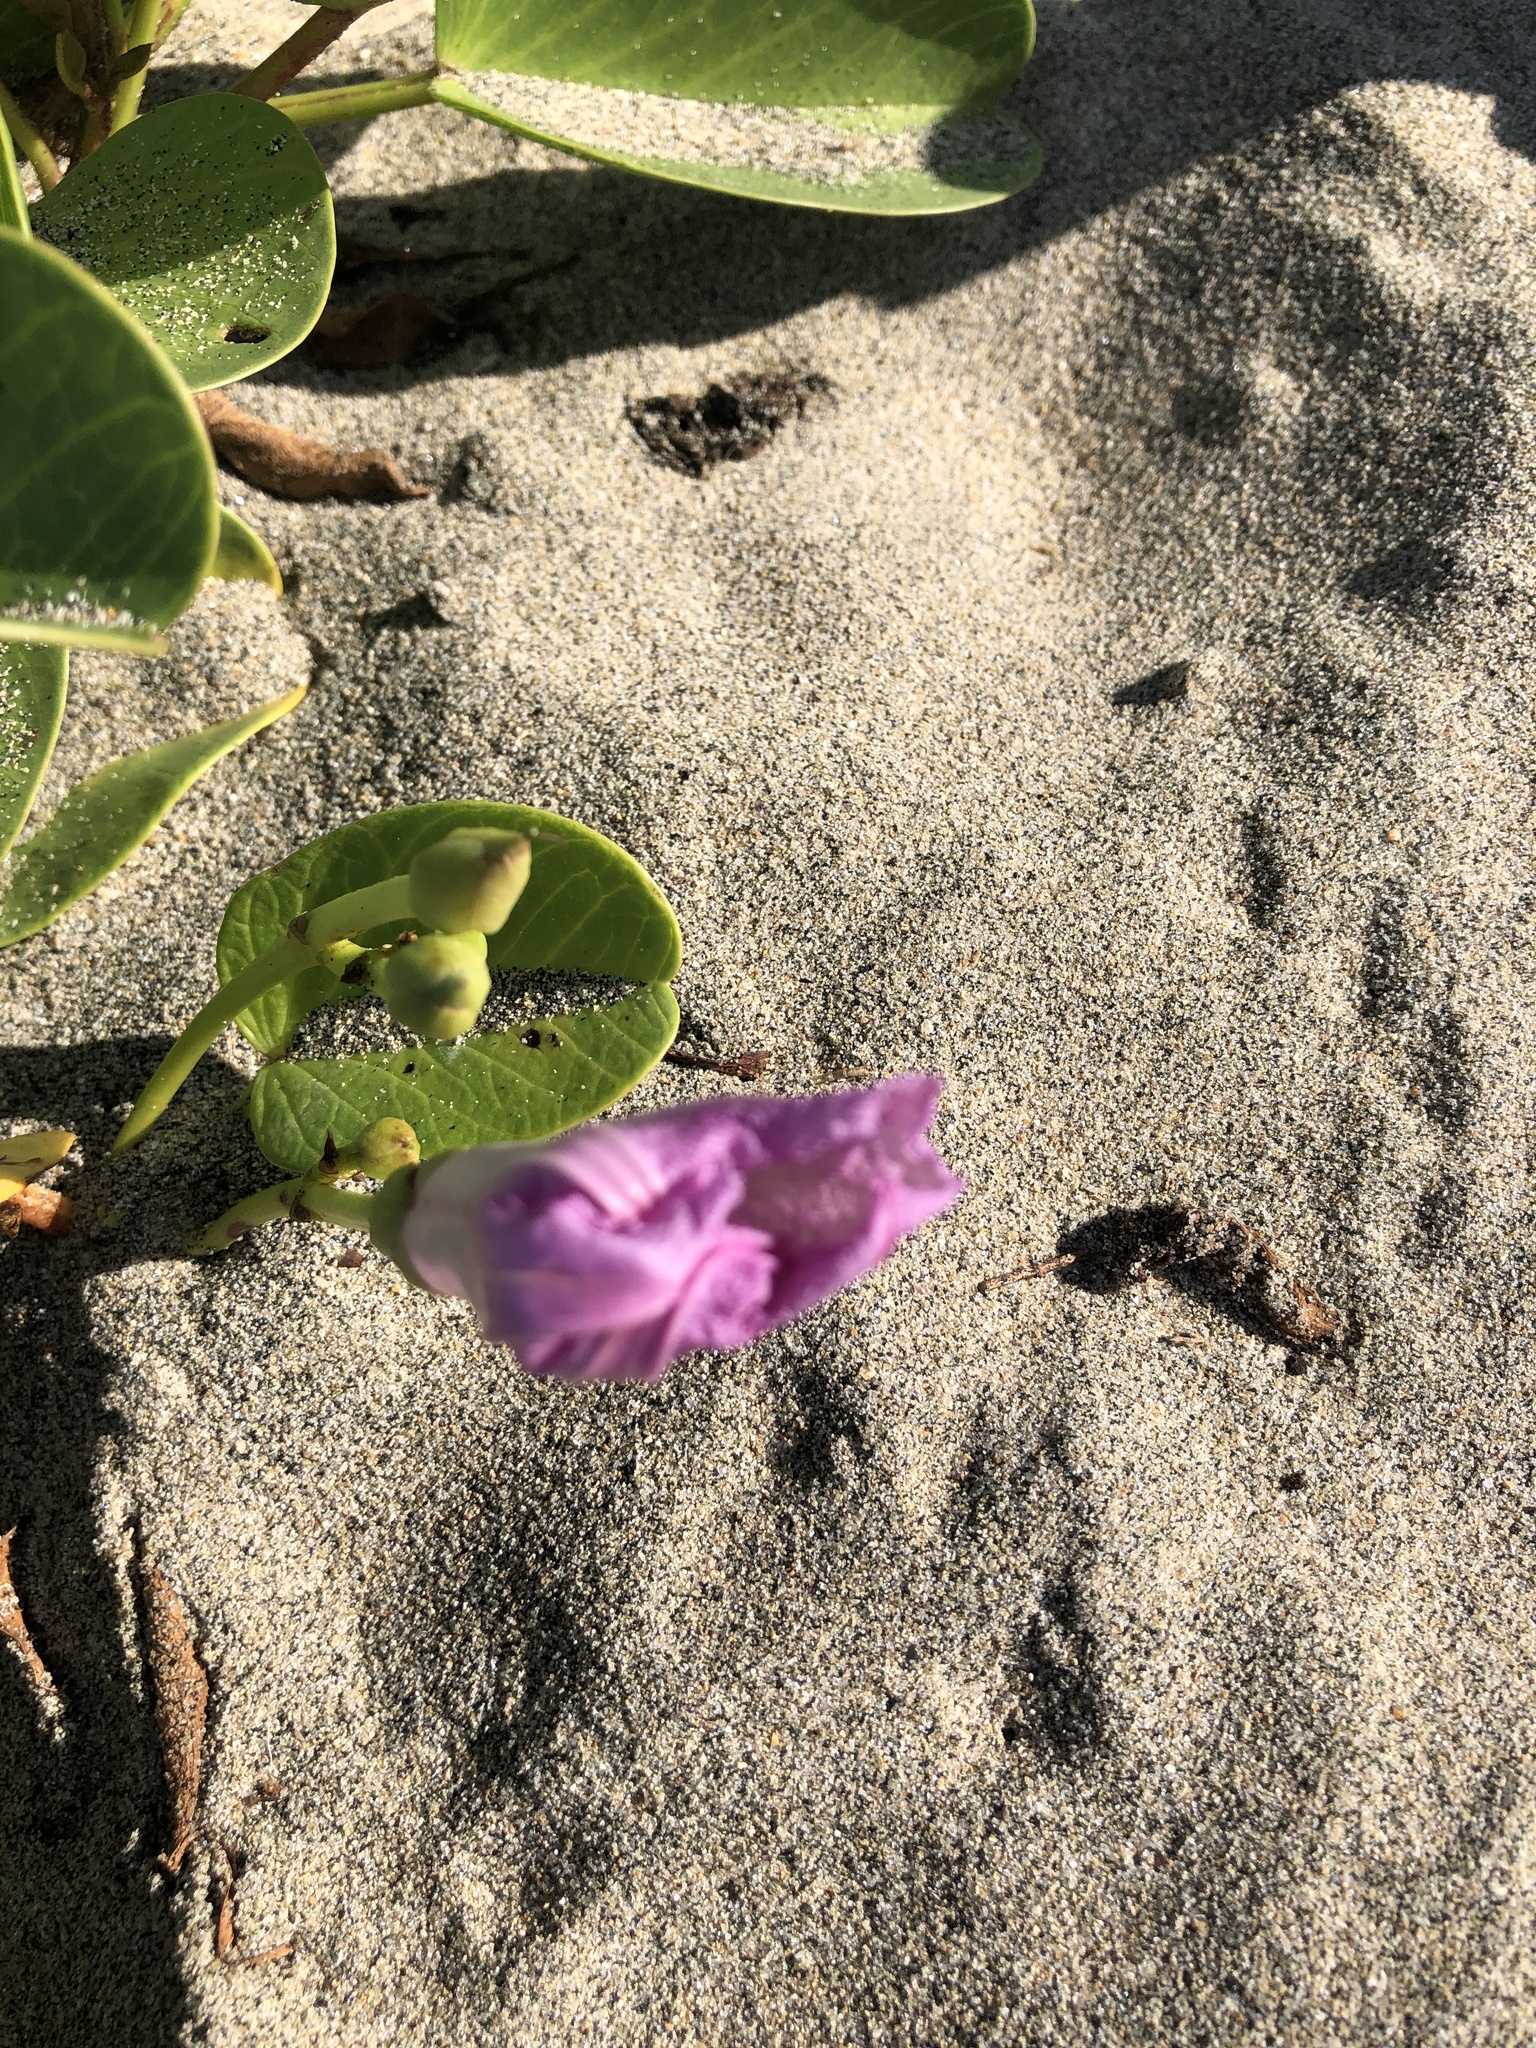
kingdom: Plantae
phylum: Tracheophyta
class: Magnoliopsida
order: Solanales
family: Convolvulaceae
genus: Ipomoea
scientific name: Ipomoea pes-caprae
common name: Beach morning glory
